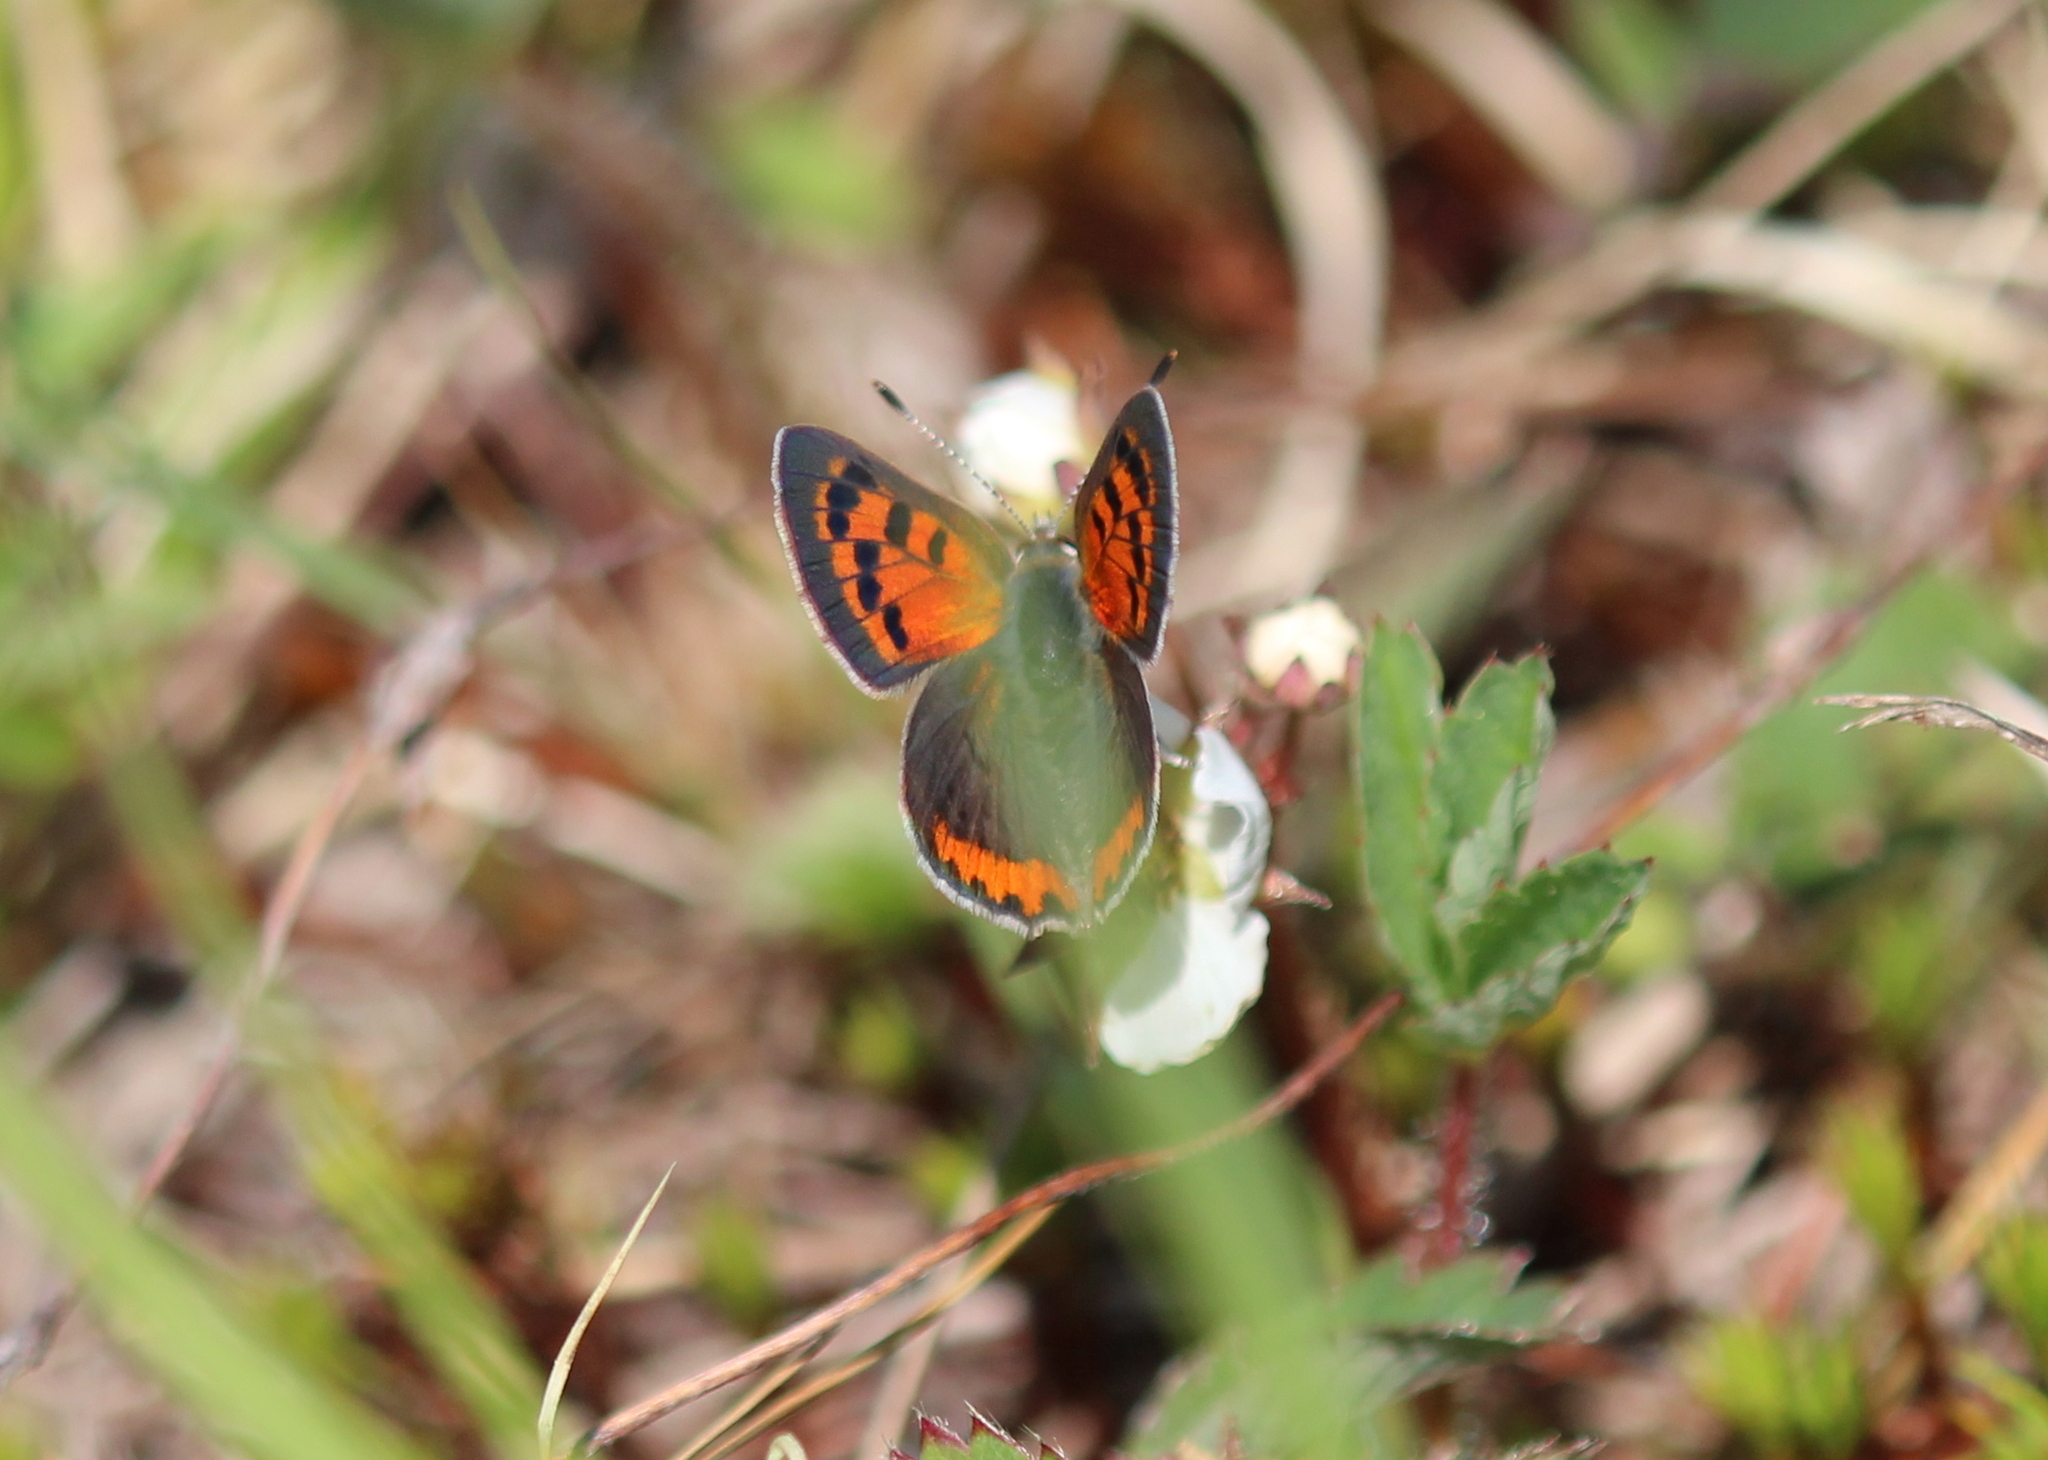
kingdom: Animalia
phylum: Arthropoda
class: Insecta
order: Lepidoptera
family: Lycaenidae
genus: Lycaena
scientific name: Lycaena hypophlaeas
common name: American copper
